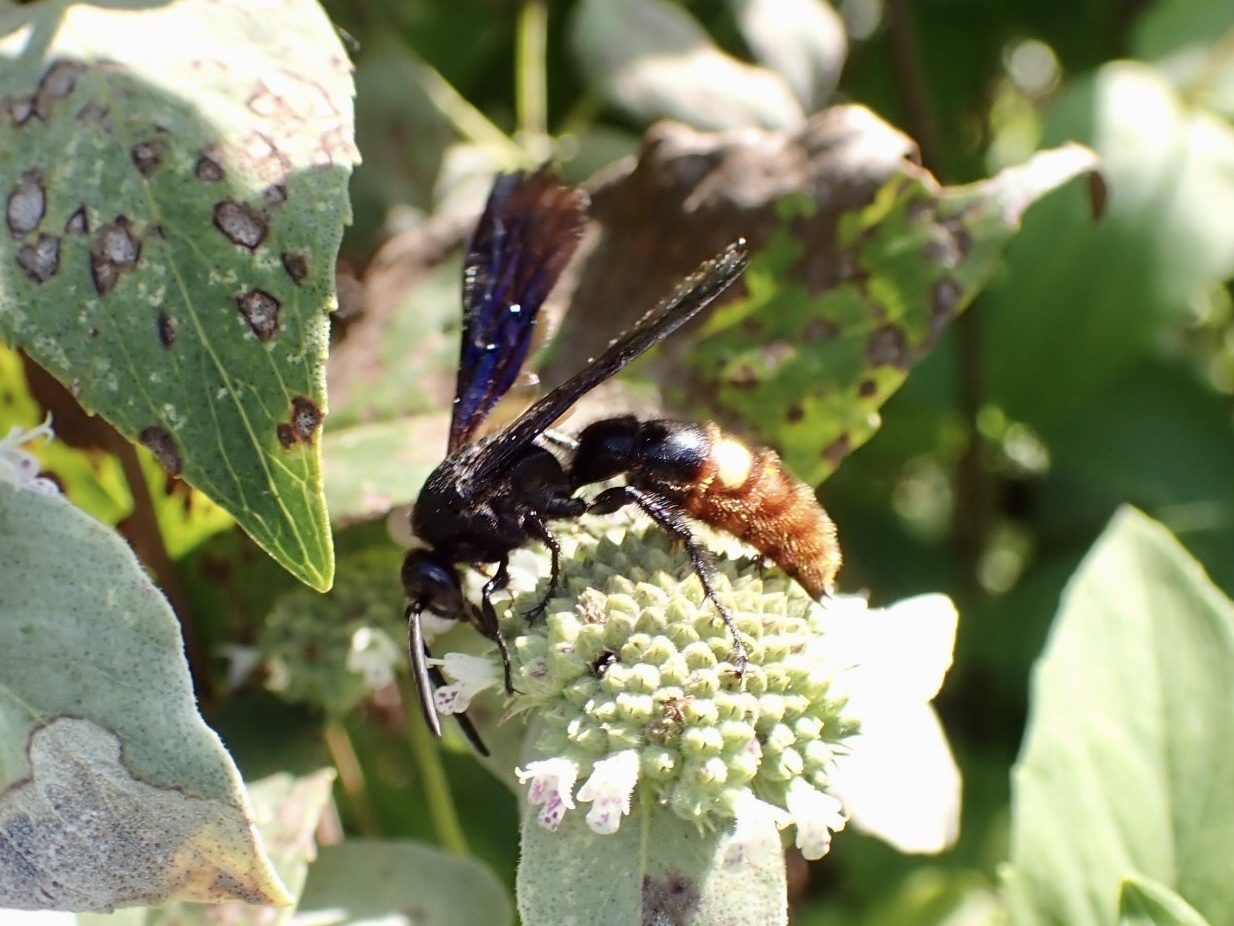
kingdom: Animalia
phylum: Arthropoda
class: Insecta
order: Hymenoptera
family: Scoliidae
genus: Scolia
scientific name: Scolia dubia
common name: Blue-winged scoliid wasp
